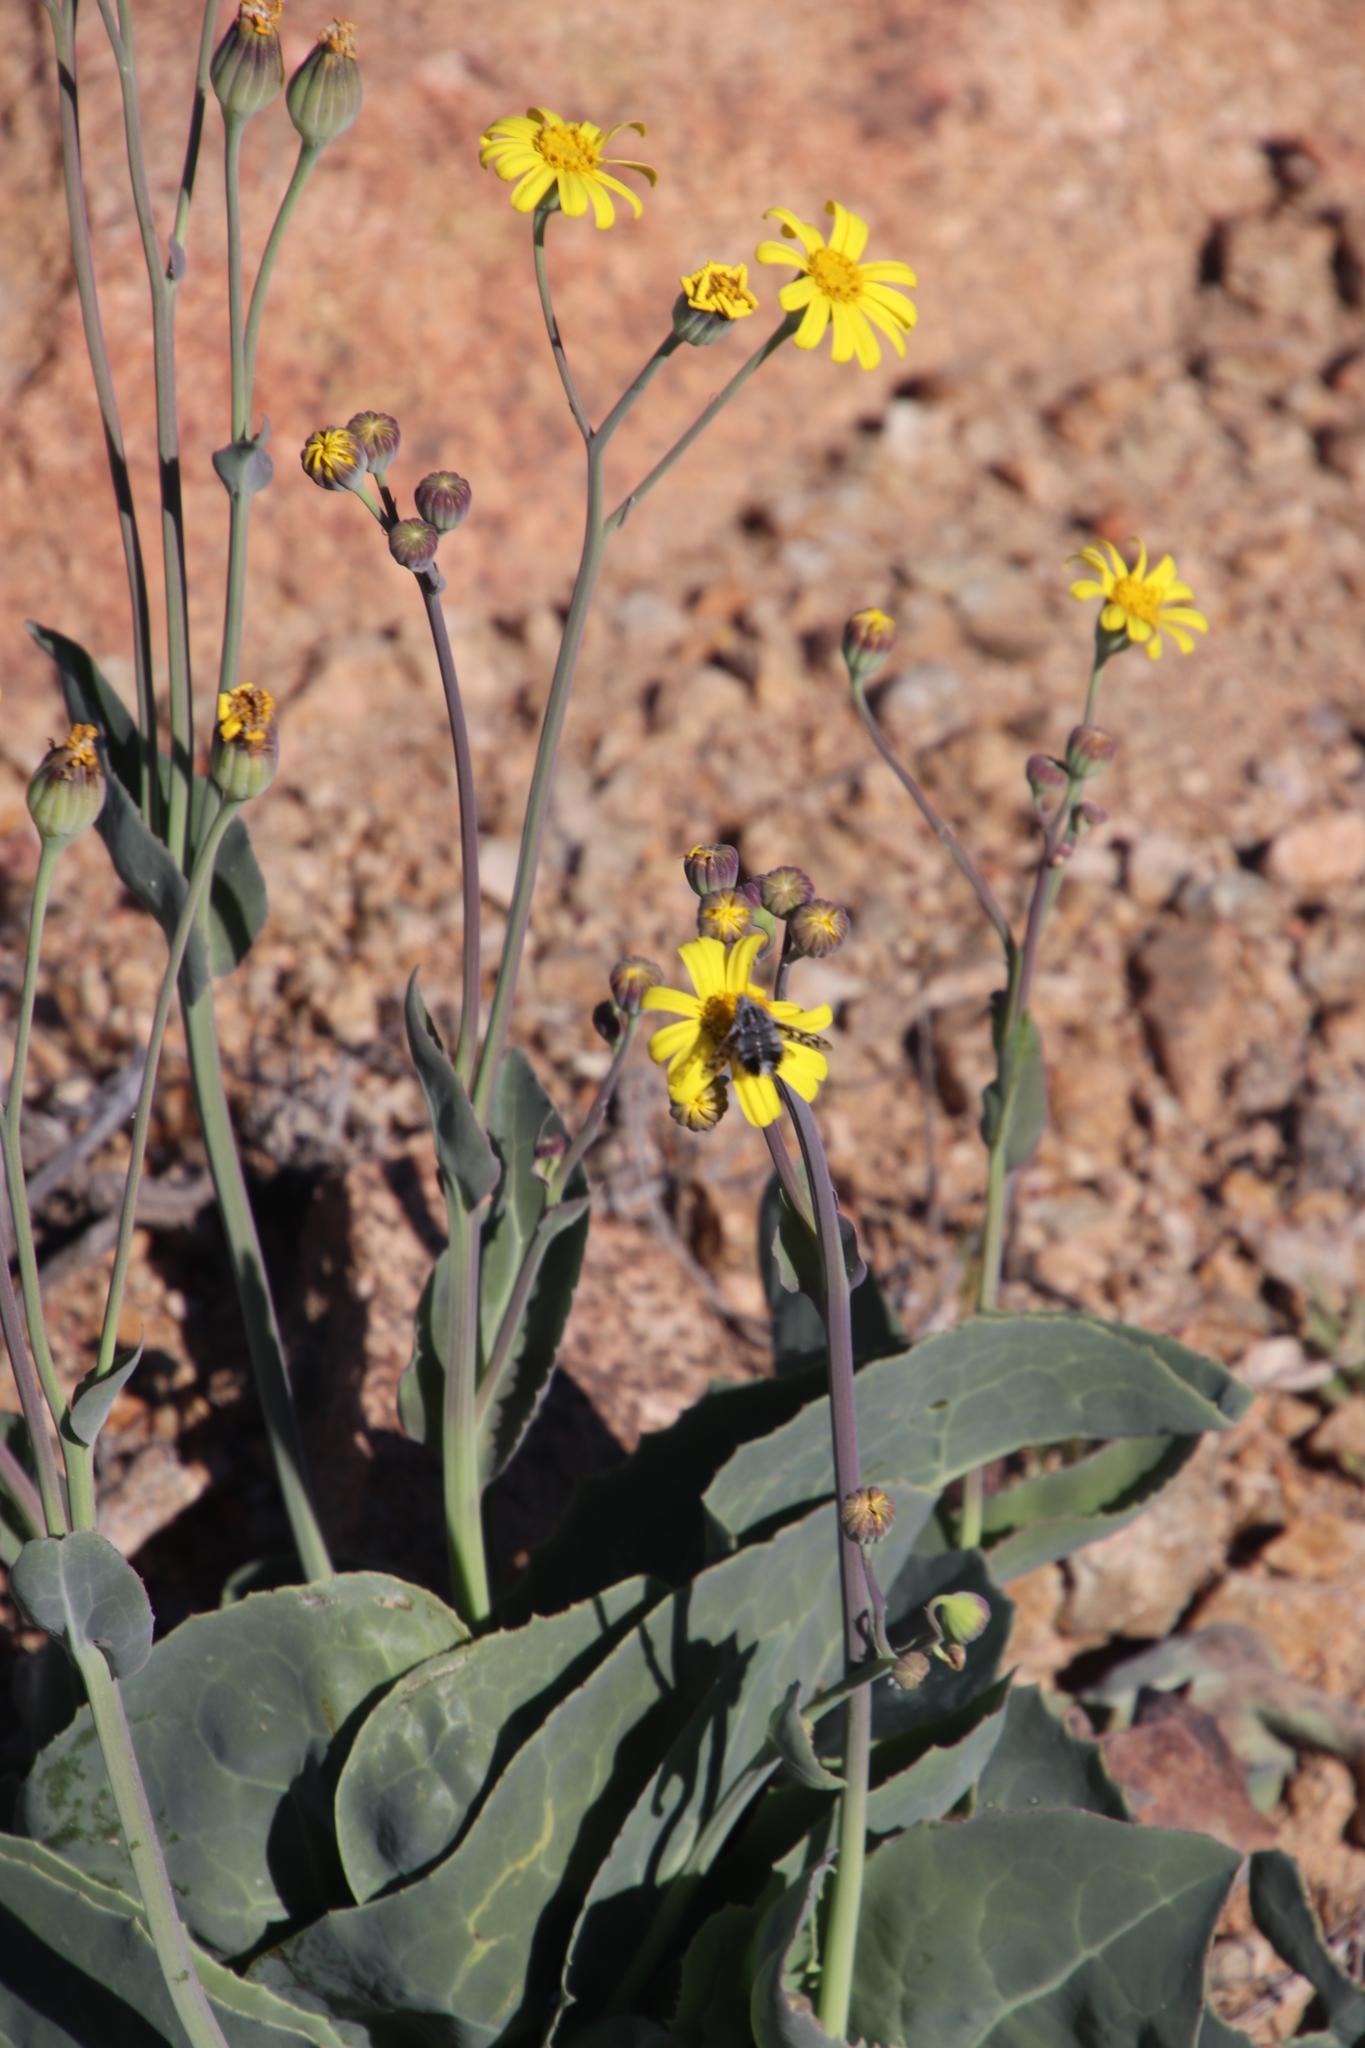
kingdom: Plantae
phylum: Tracheophyta
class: Magnoliopsida
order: Asterales
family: Asteraceae
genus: Othonna
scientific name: Othonna macrophylla
